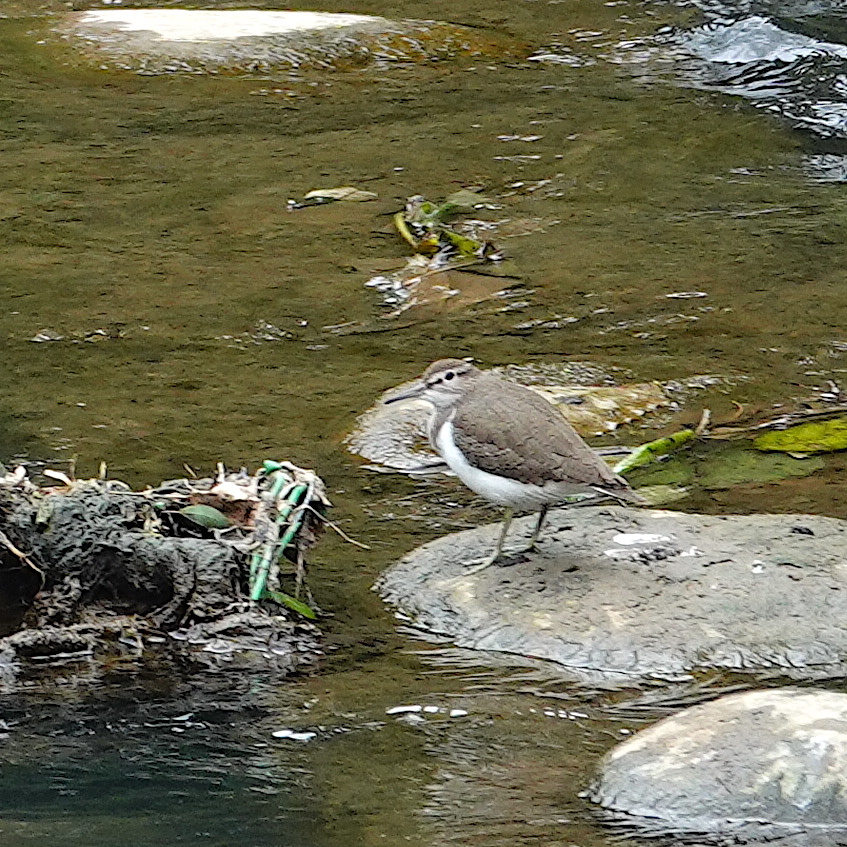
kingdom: Animalia
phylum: Chordata
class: Aves
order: Charadriiformes
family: Scolopacidae
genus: Actitis
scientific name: Actitis hypoleucos
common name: Common sandpiper
